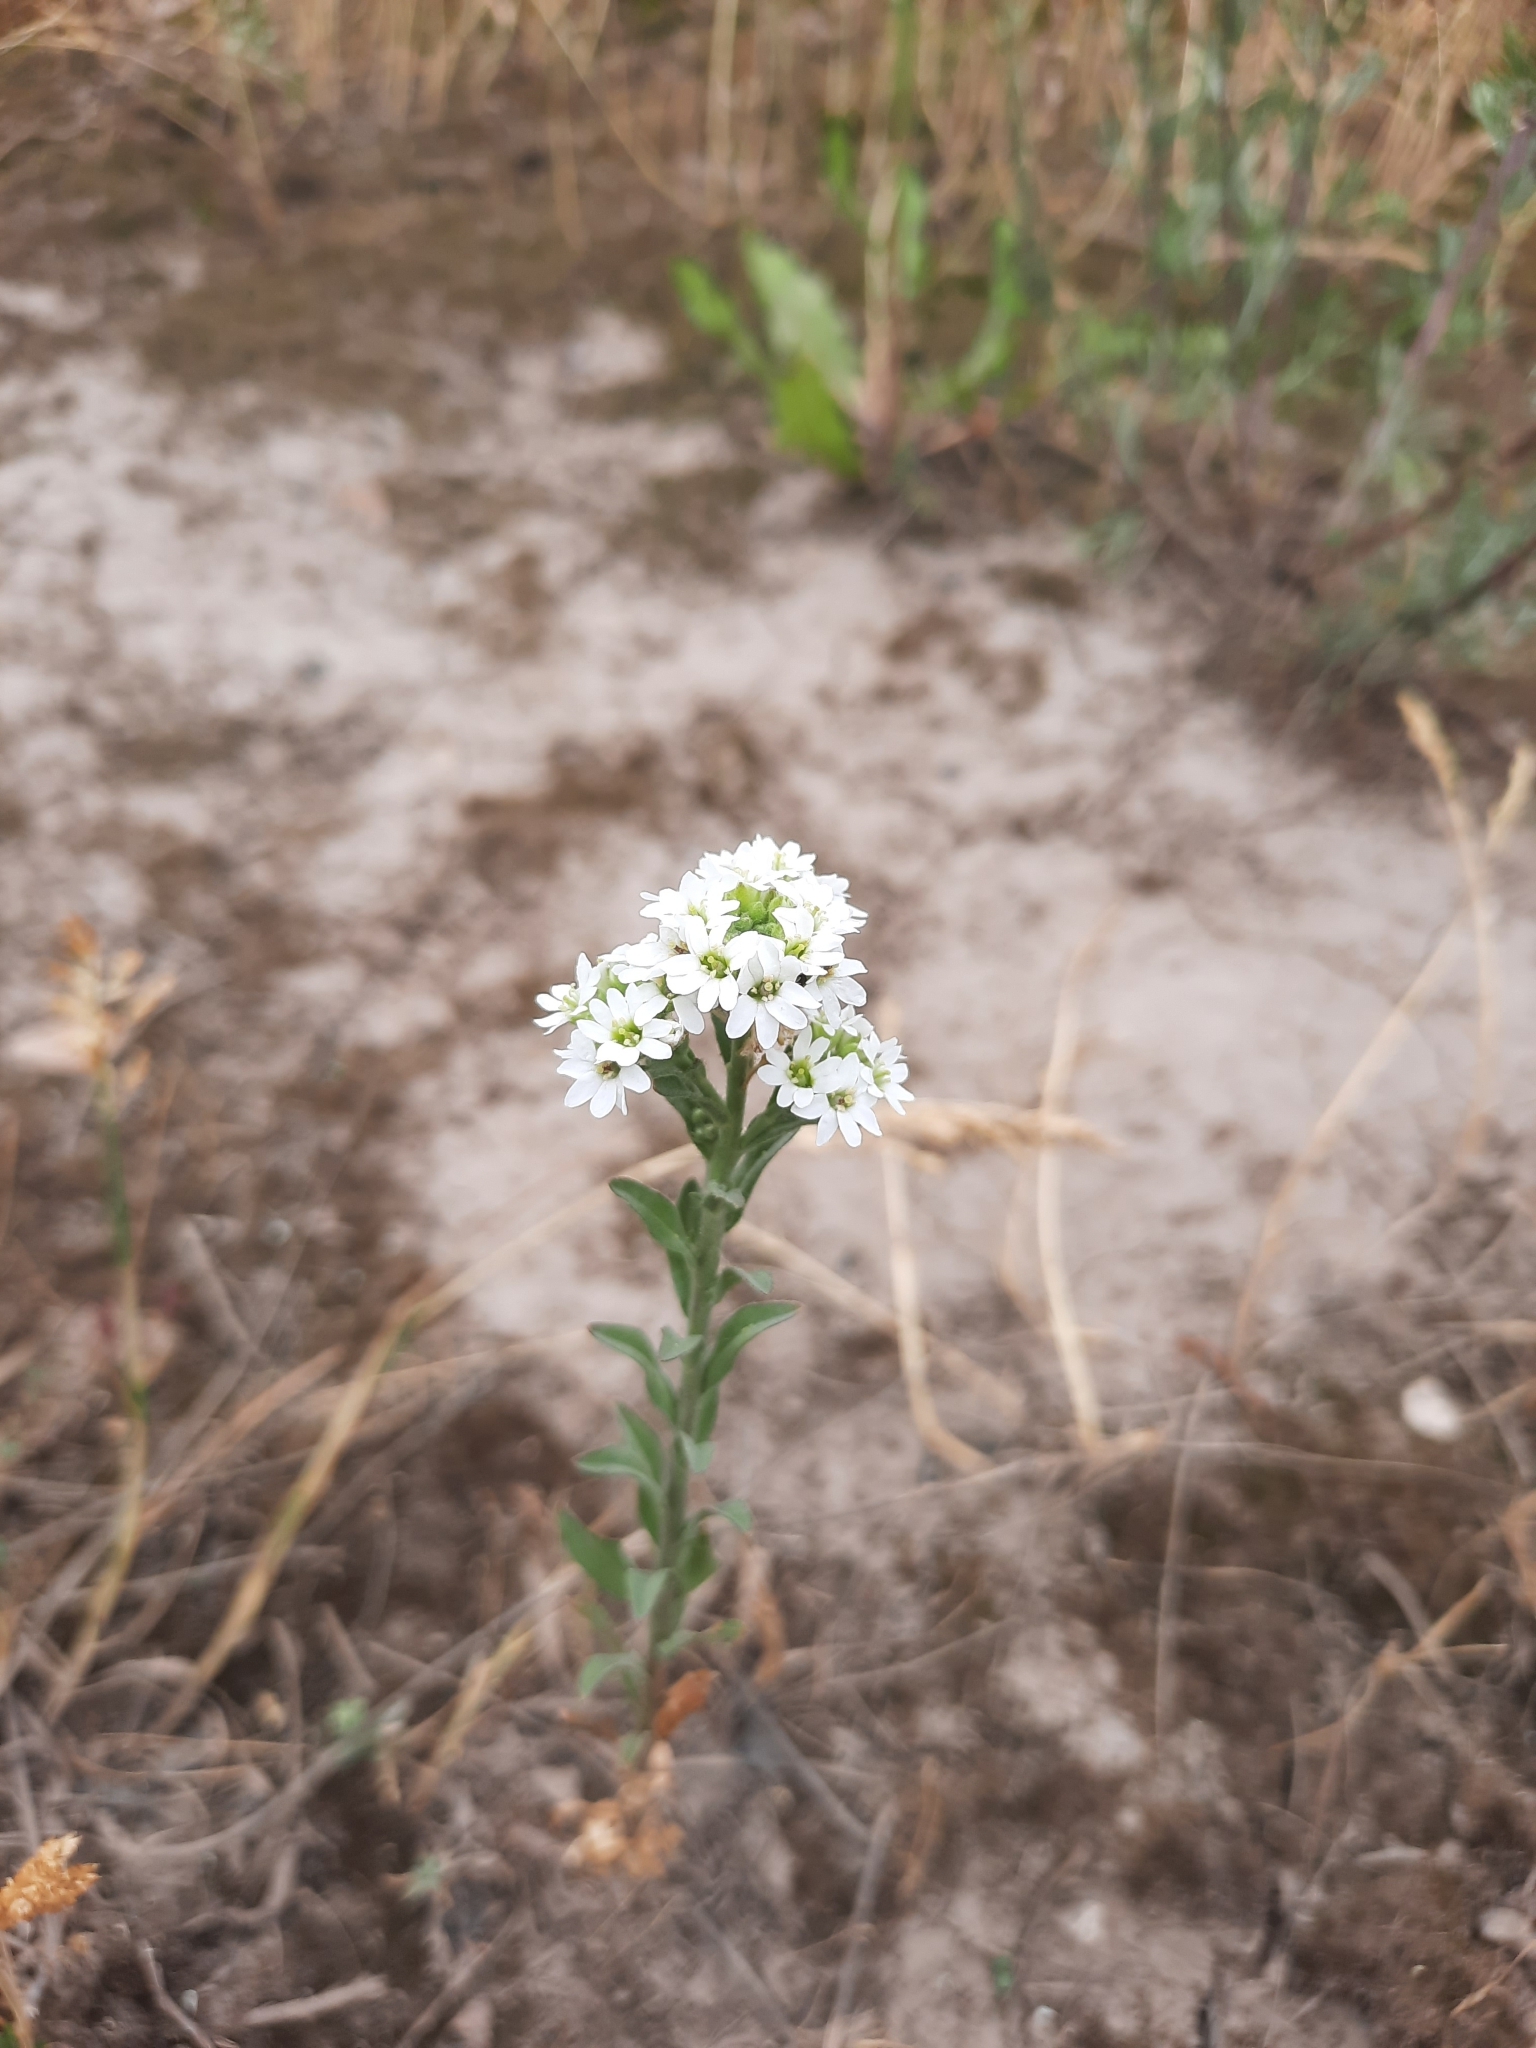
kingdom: Plantae
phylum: Tracheophyta
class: Magnoliopsida
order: Brassicales
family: Brassicaceae
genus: Berteroa
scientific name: Berteroa incana
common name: Hoary alison
